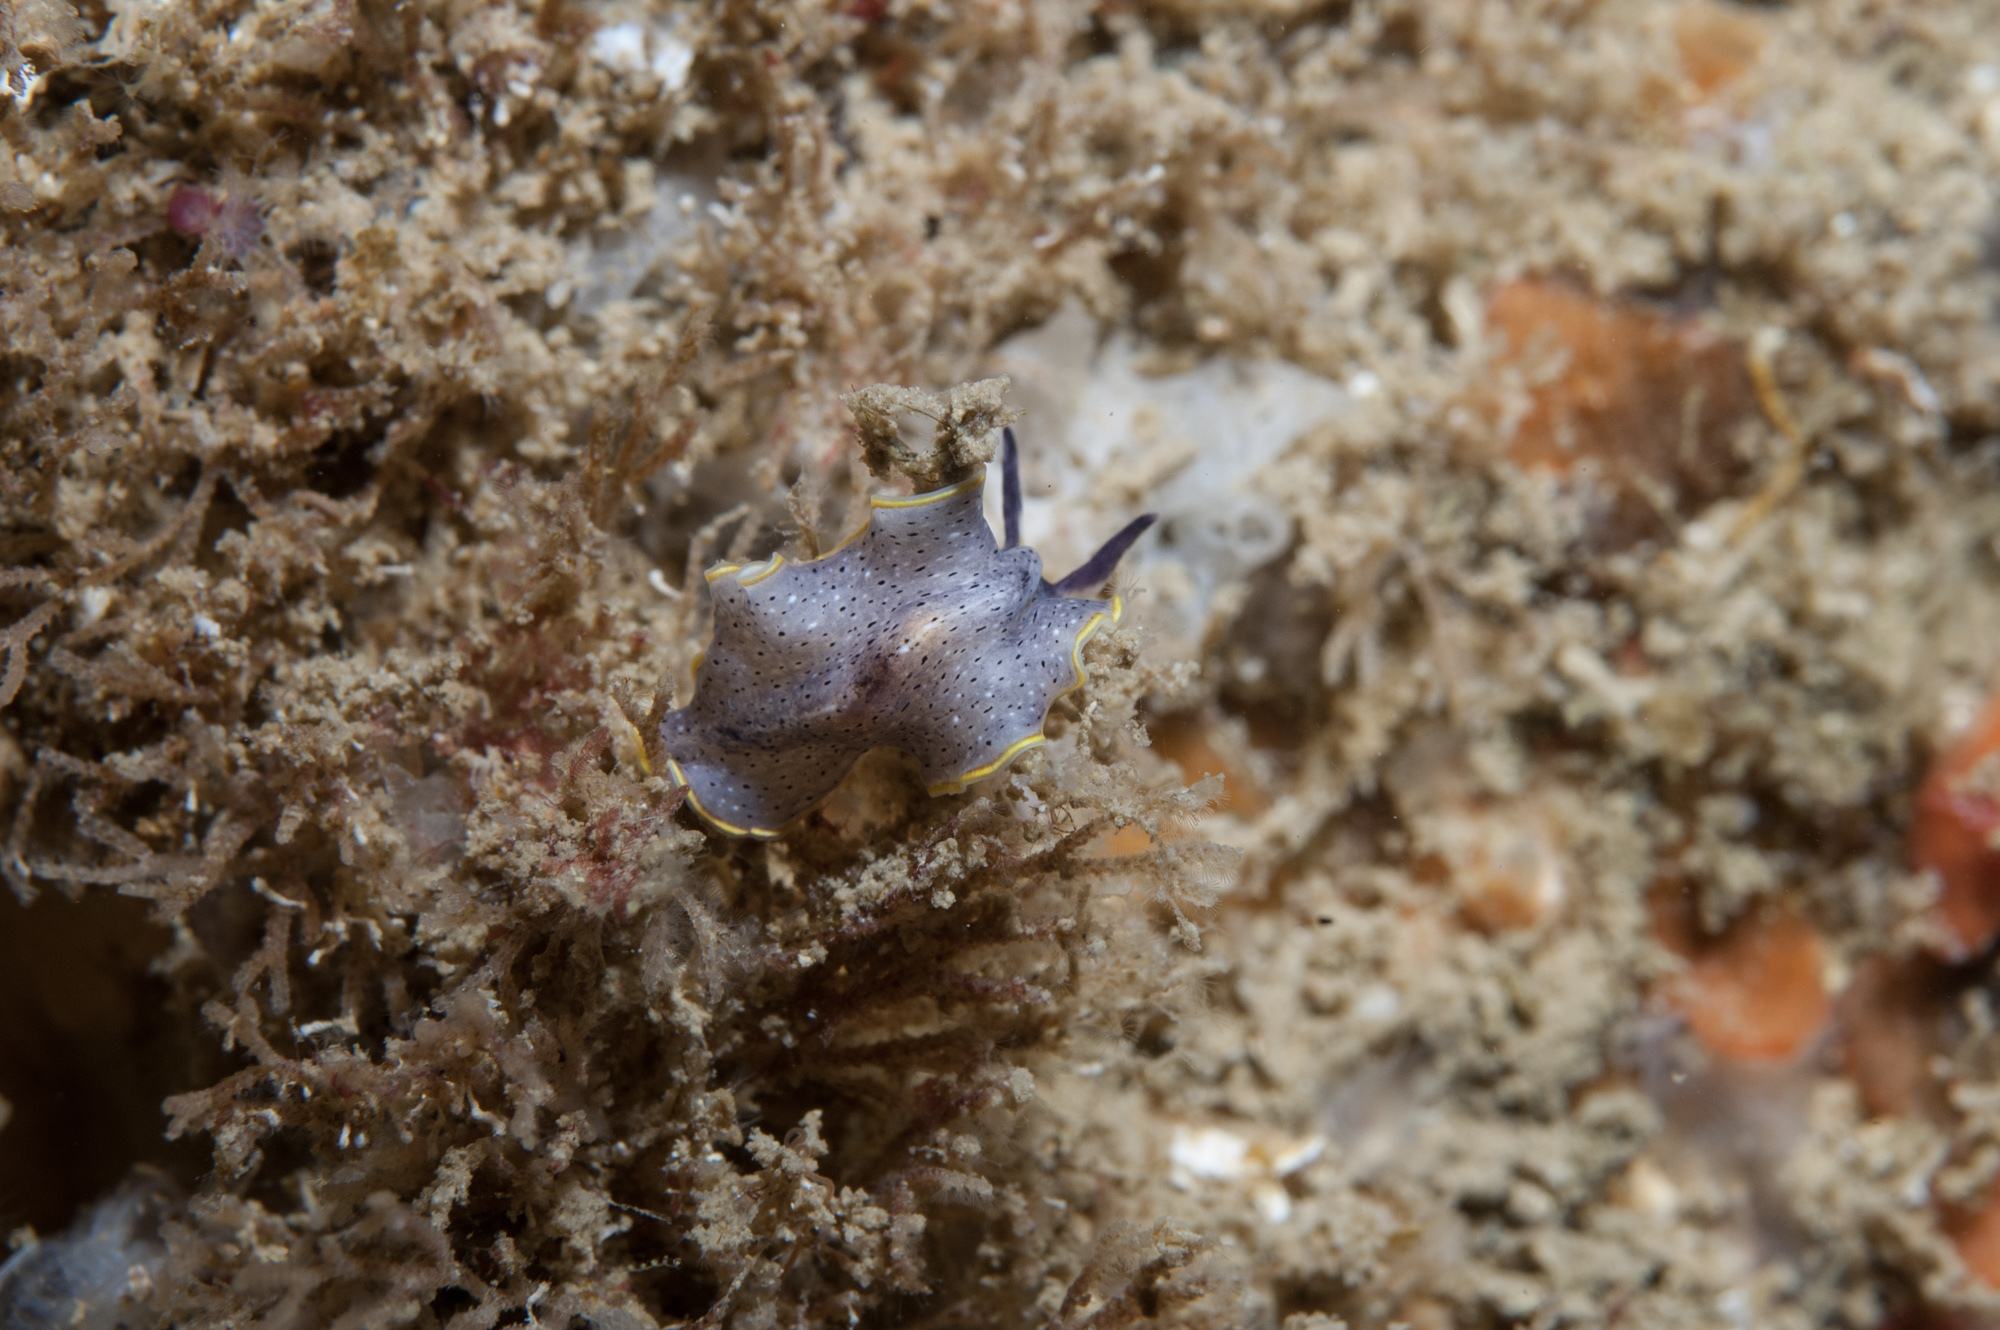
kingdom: Animalia
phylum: Platyhelminthes
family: Euryleptidae
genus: Prostheceraeus
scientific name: Prostheceraeus moseleyi
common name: Moseley's flatworm
